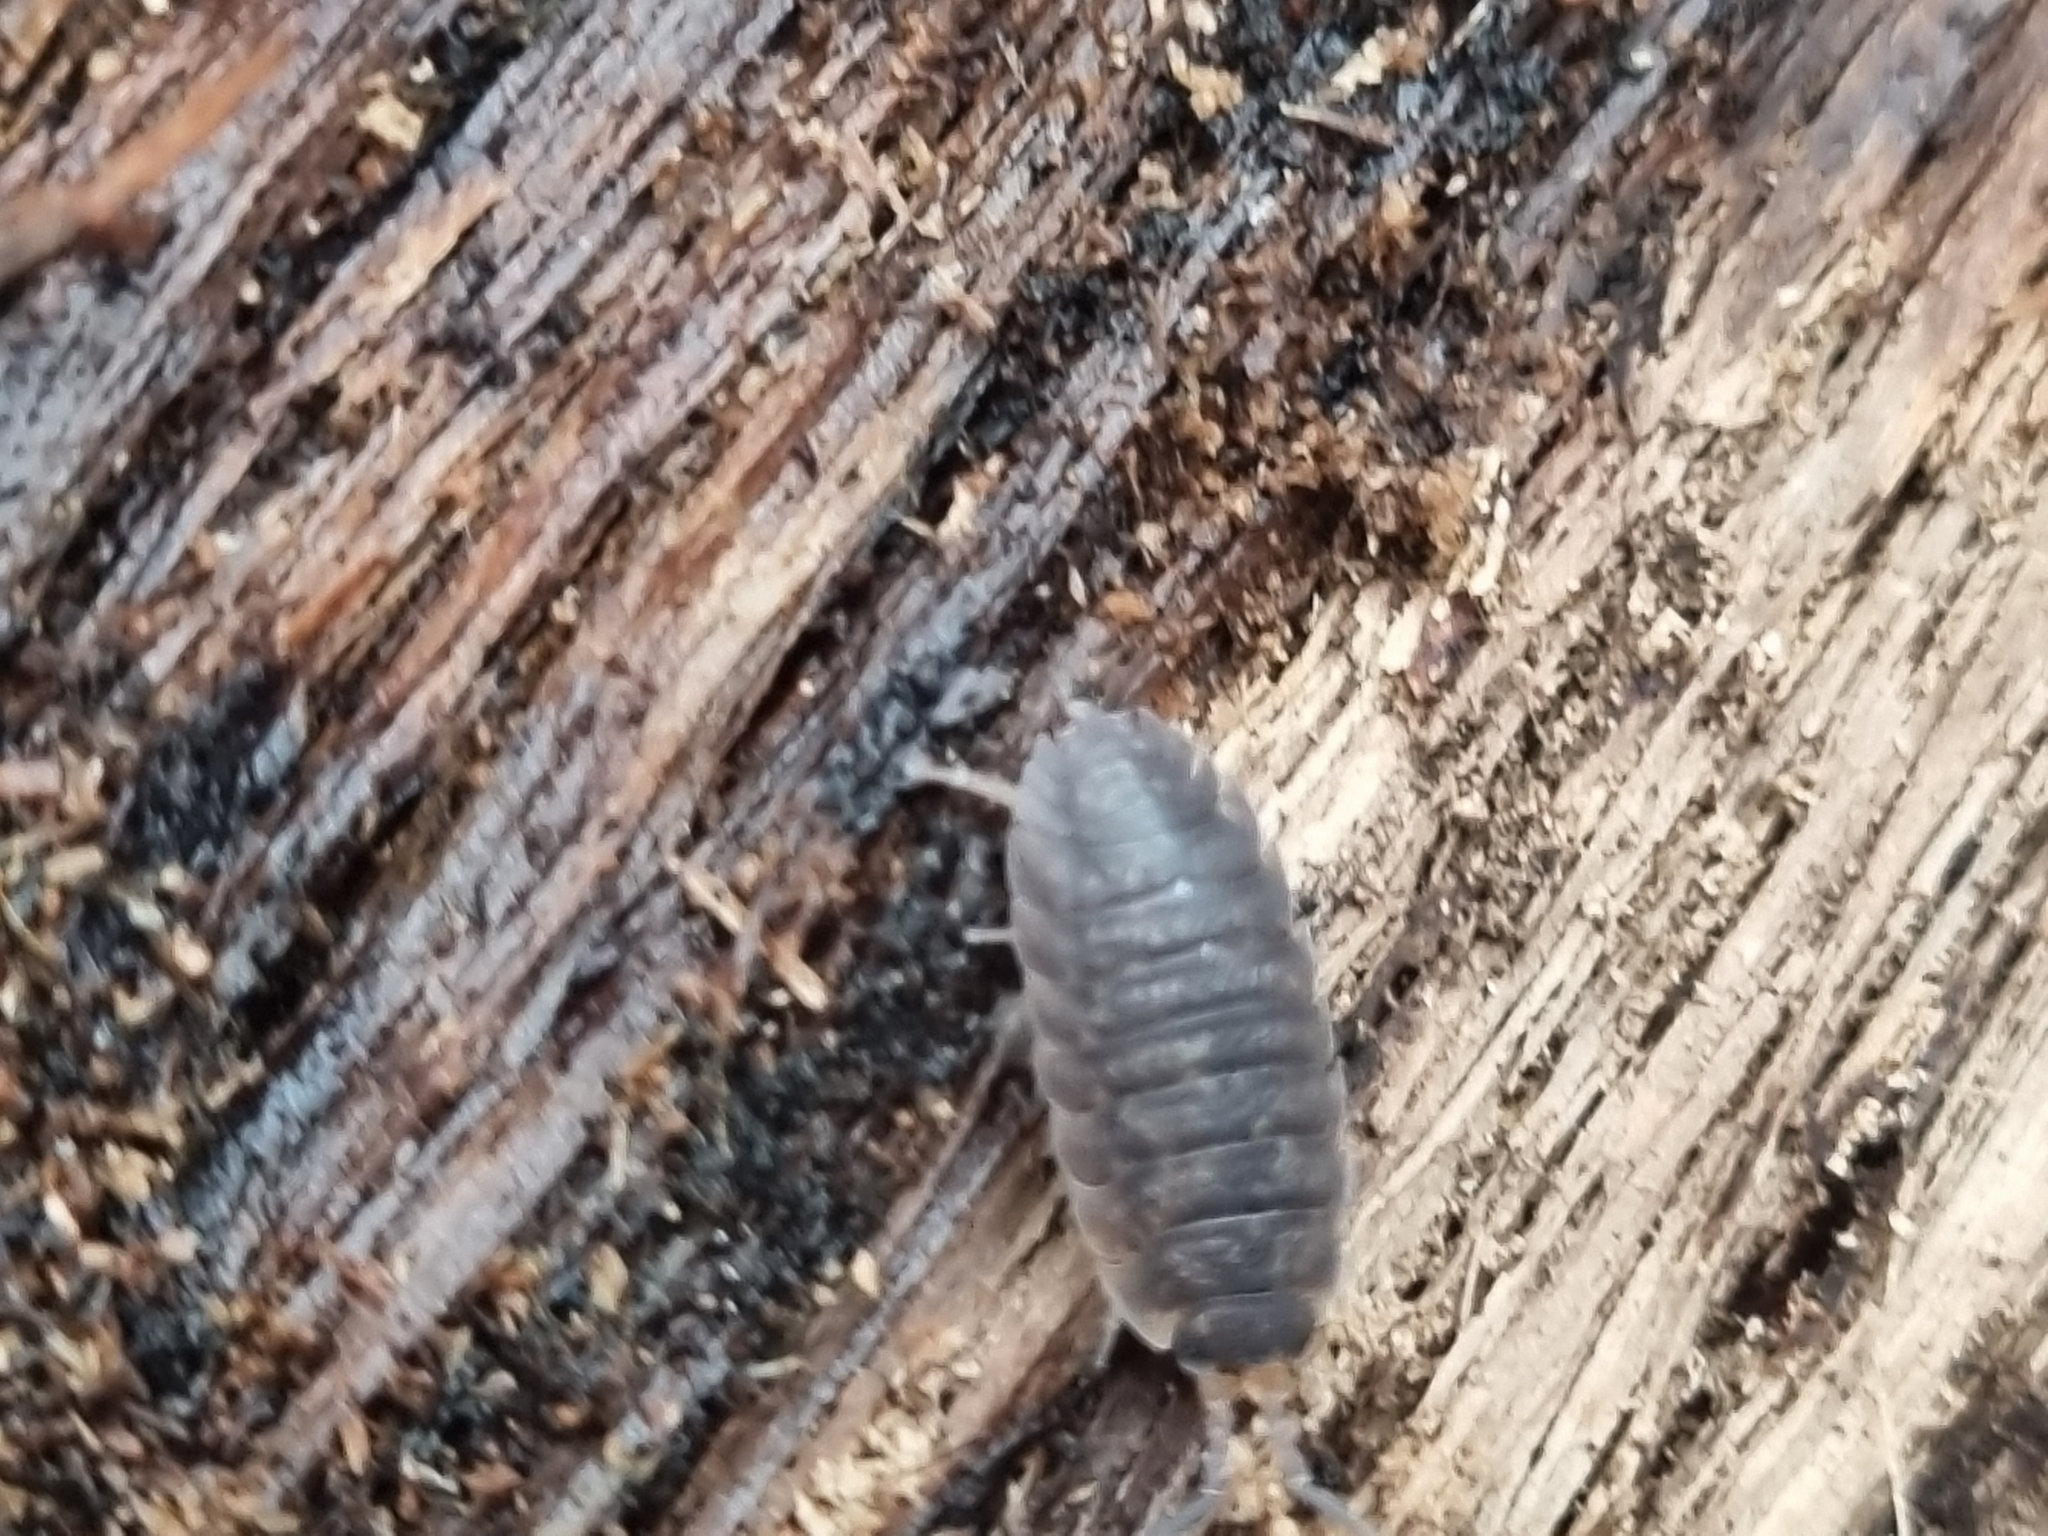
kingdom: Animalia
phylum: Arthropoda
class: Malacostraca
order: Isopoda
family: Porcellionidae
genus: Porcellio
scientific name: Porcellio scaber
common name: Common rough woodlouse
